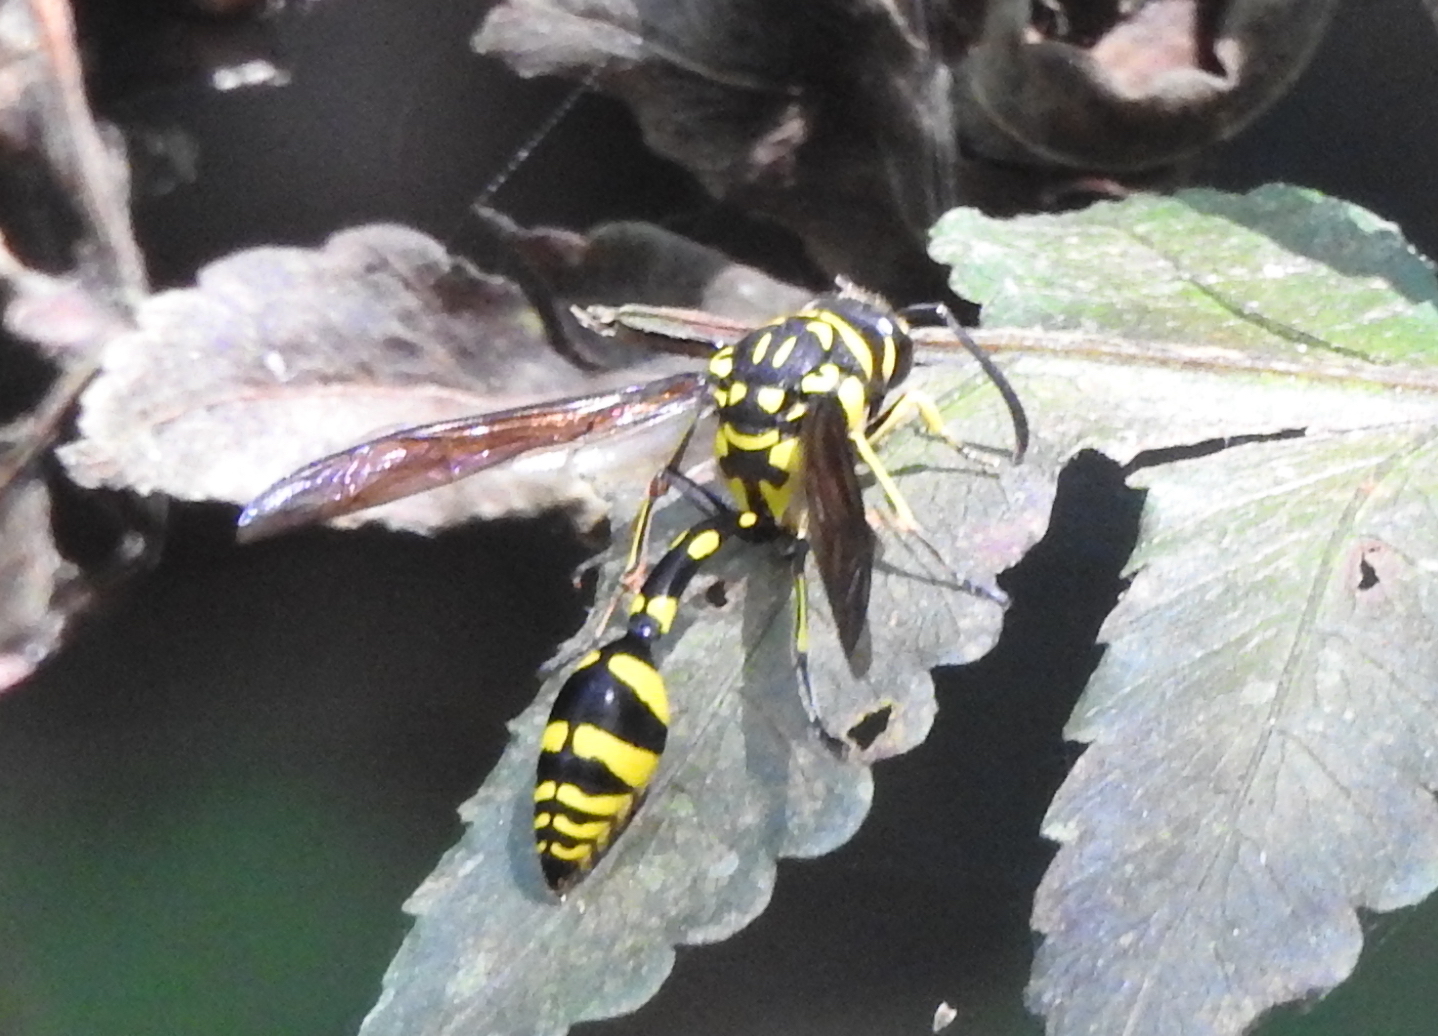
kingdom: Animalia
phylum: Arthropoda
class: Insecta
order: Hymenoptera
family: Eumenidae
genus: Phimenes
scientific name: Phimenes flavopictus
